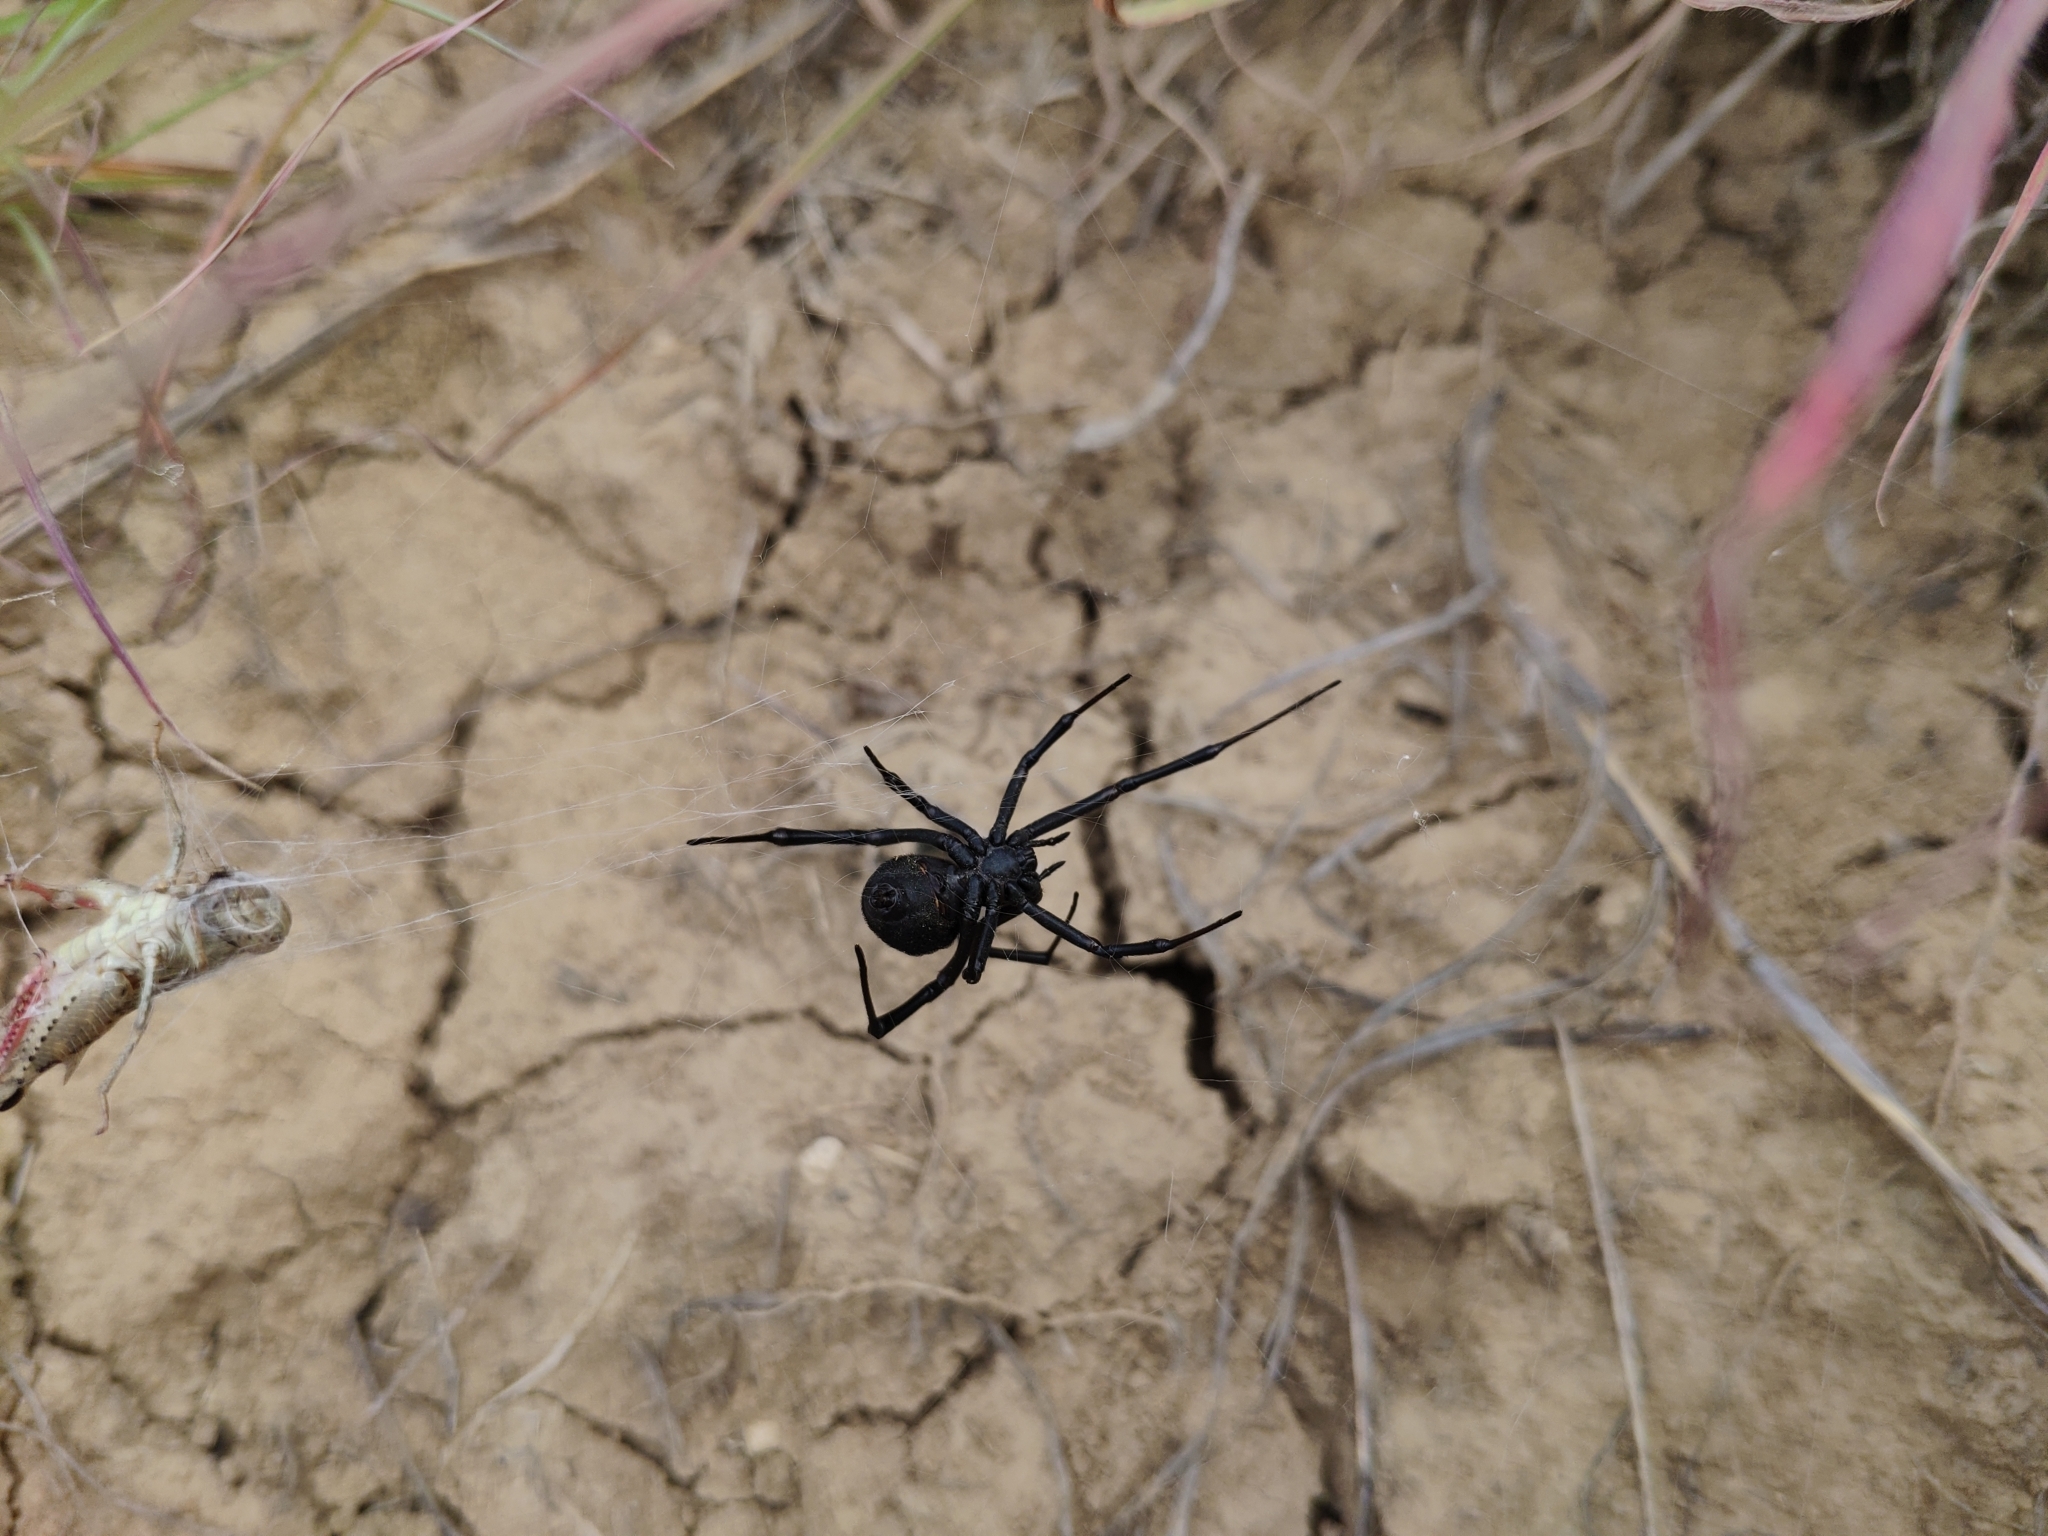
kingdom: Animalia
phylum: Arthropoda
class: Arachnida
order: Araneae
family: Theridiidae
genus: Latrodectus
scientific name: Latrodectus tredecimguttatus
